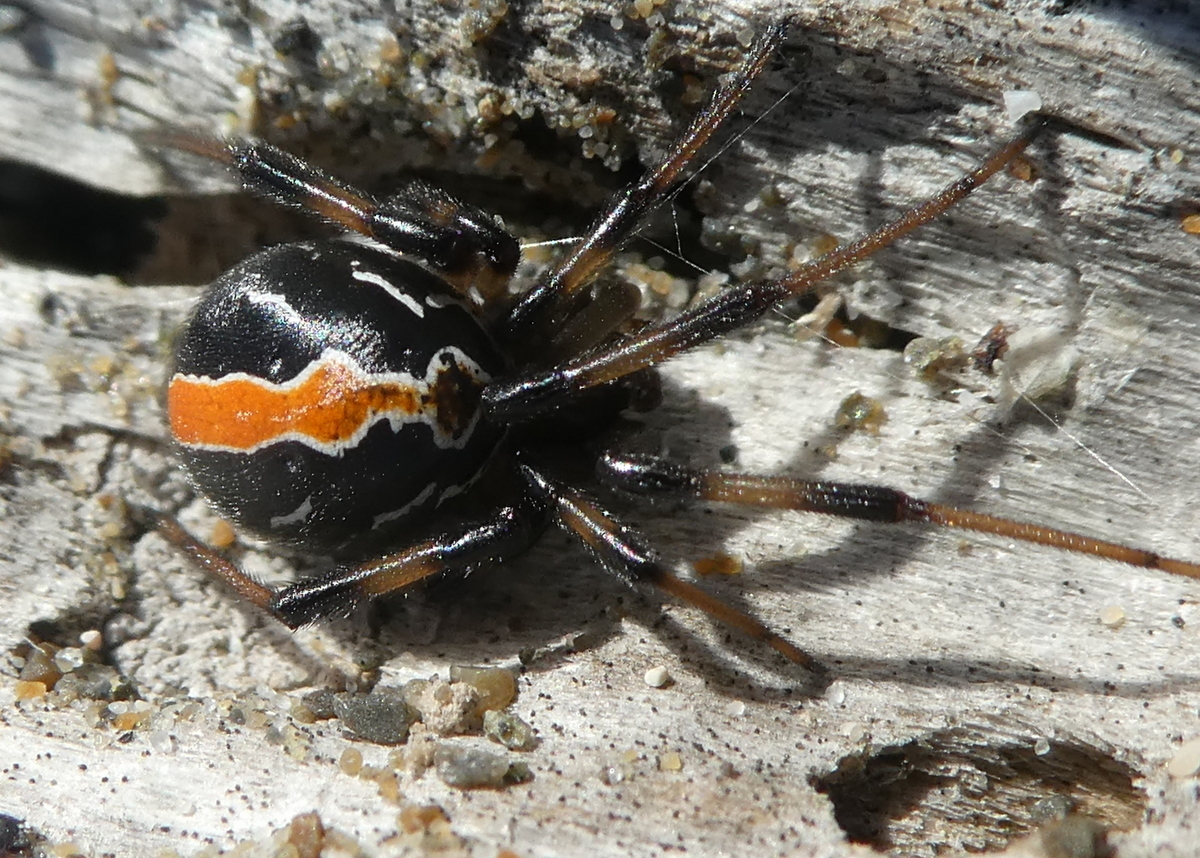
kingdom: Animalia
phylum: Arthropoda
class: Arachnida
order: Araneae
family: Theridiidae
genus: Latrodectus
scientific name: Latrodectus katipo
